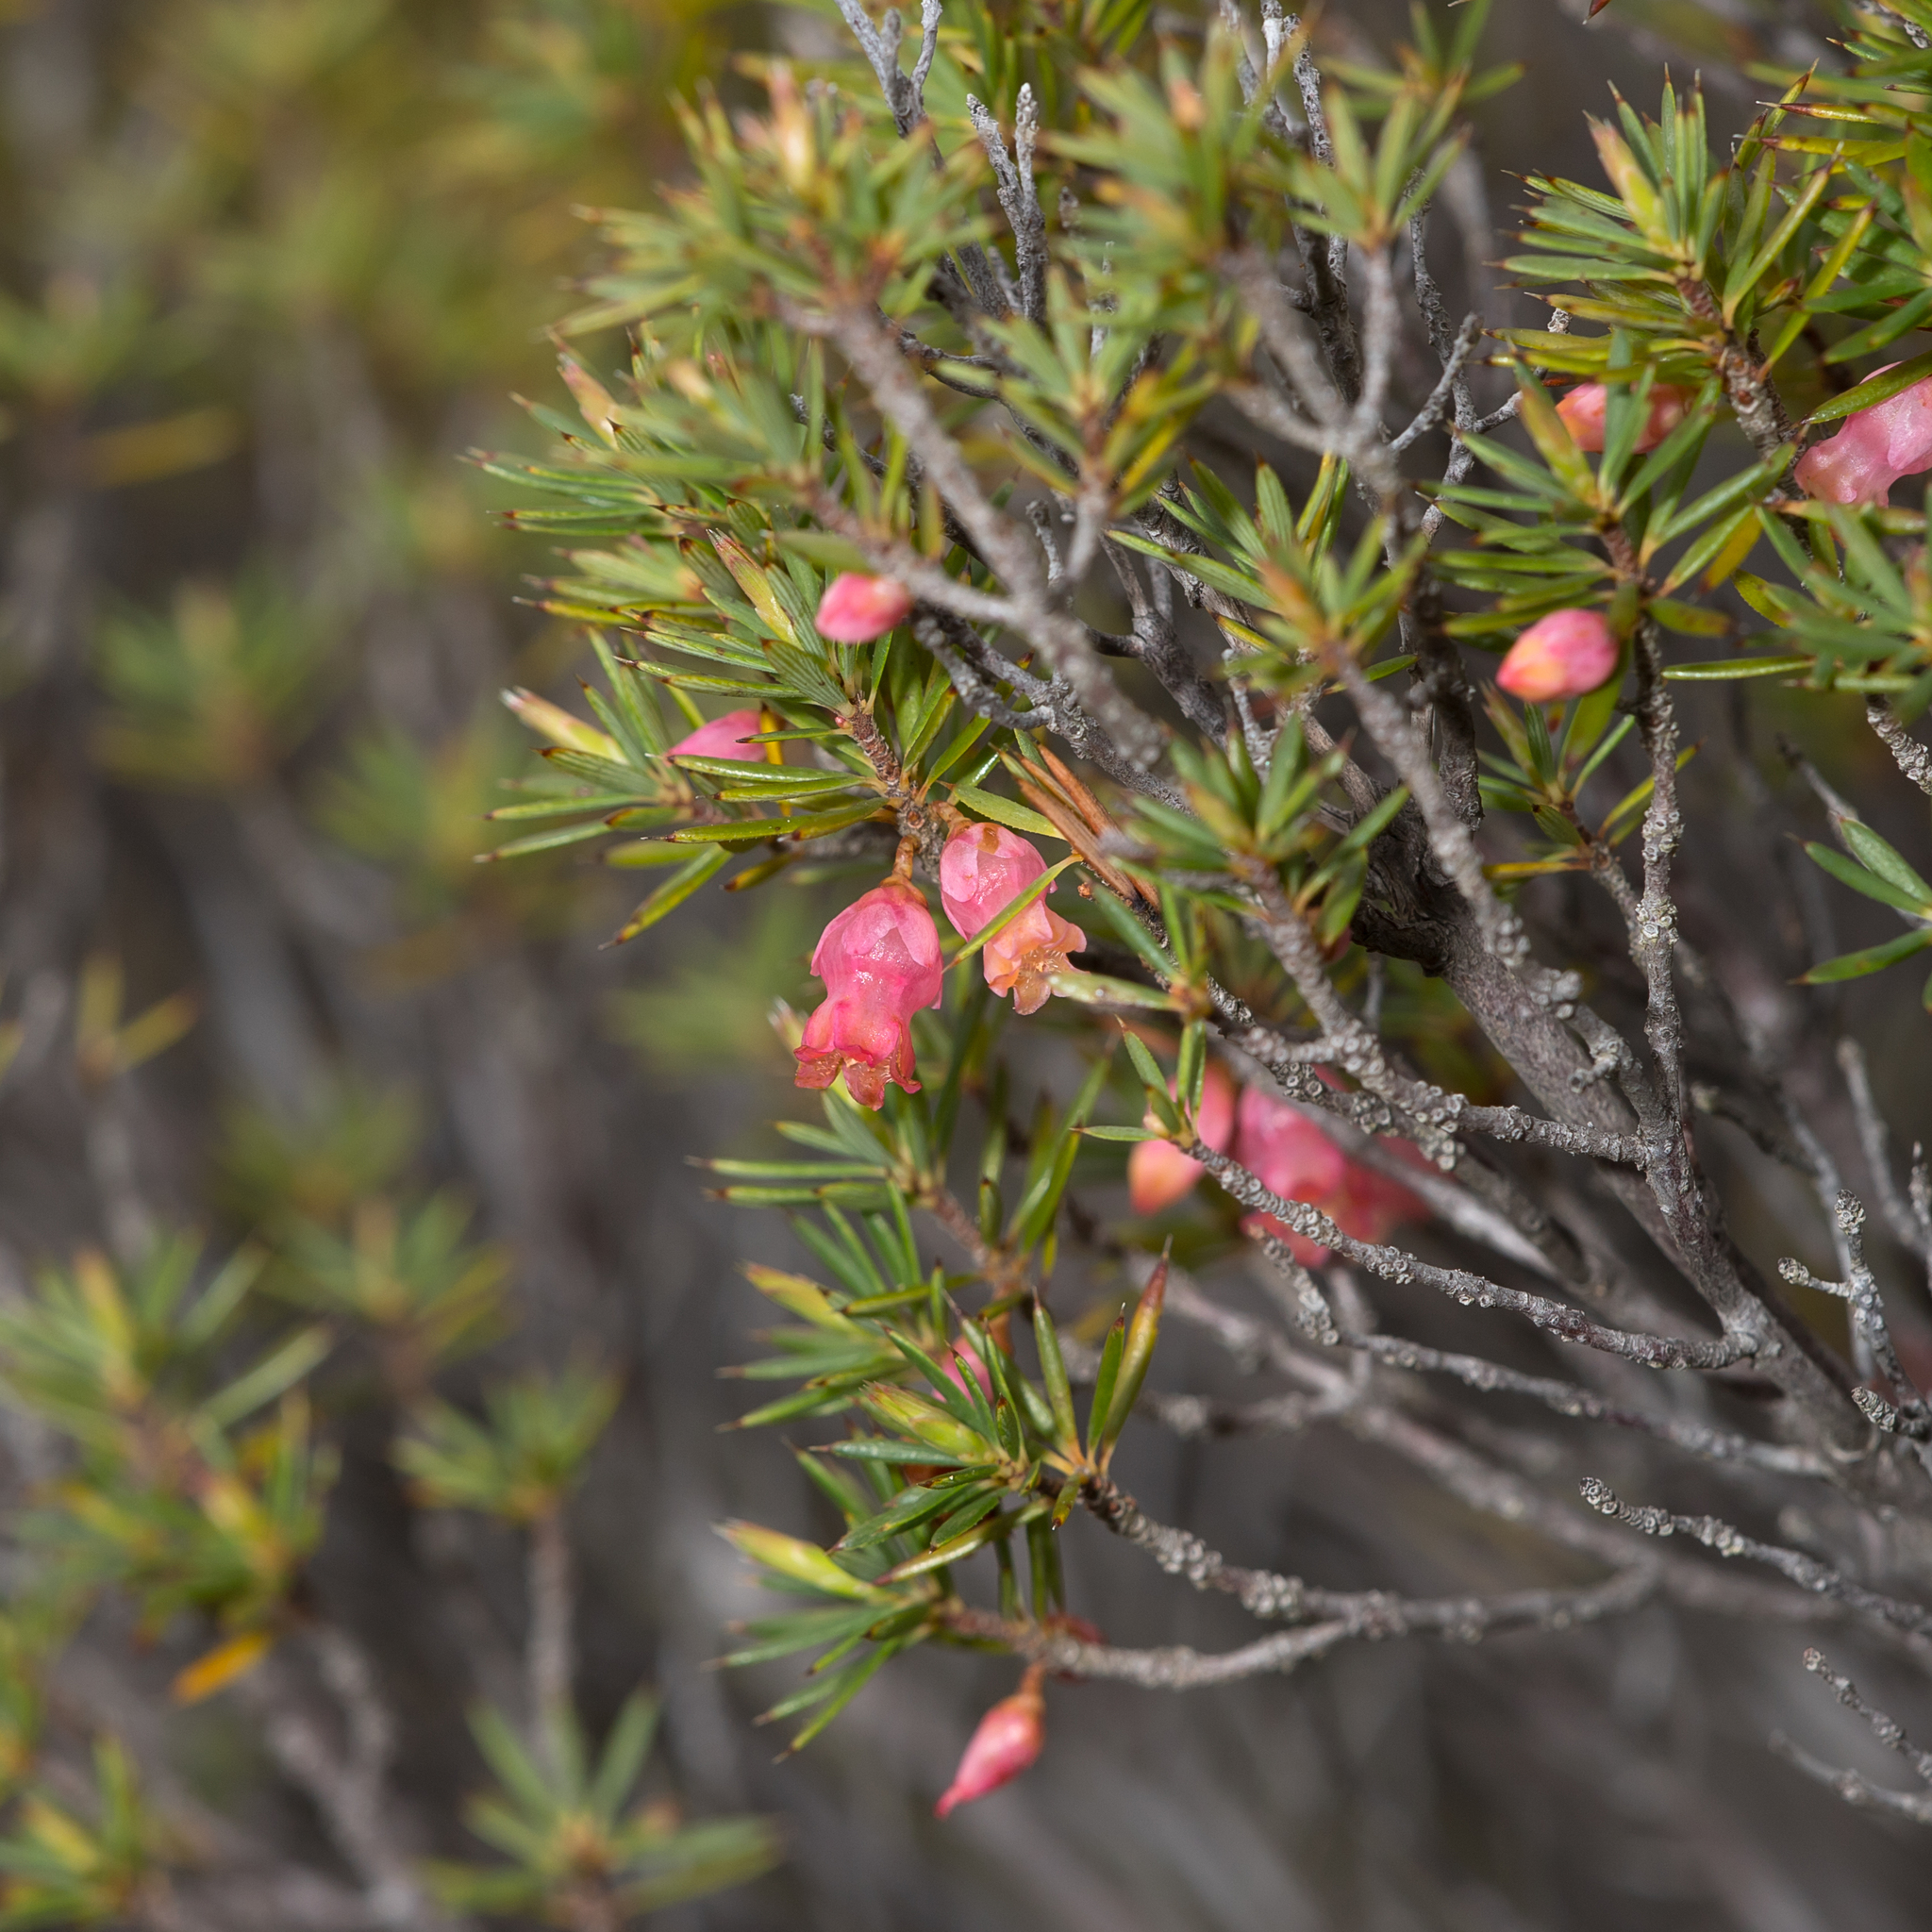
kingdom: Plantae
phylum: Tracheophyta
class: Magnoliopsida
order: Ericales
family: Ericaceae
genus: Brachyloma
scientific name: Brachyloma ericoides
